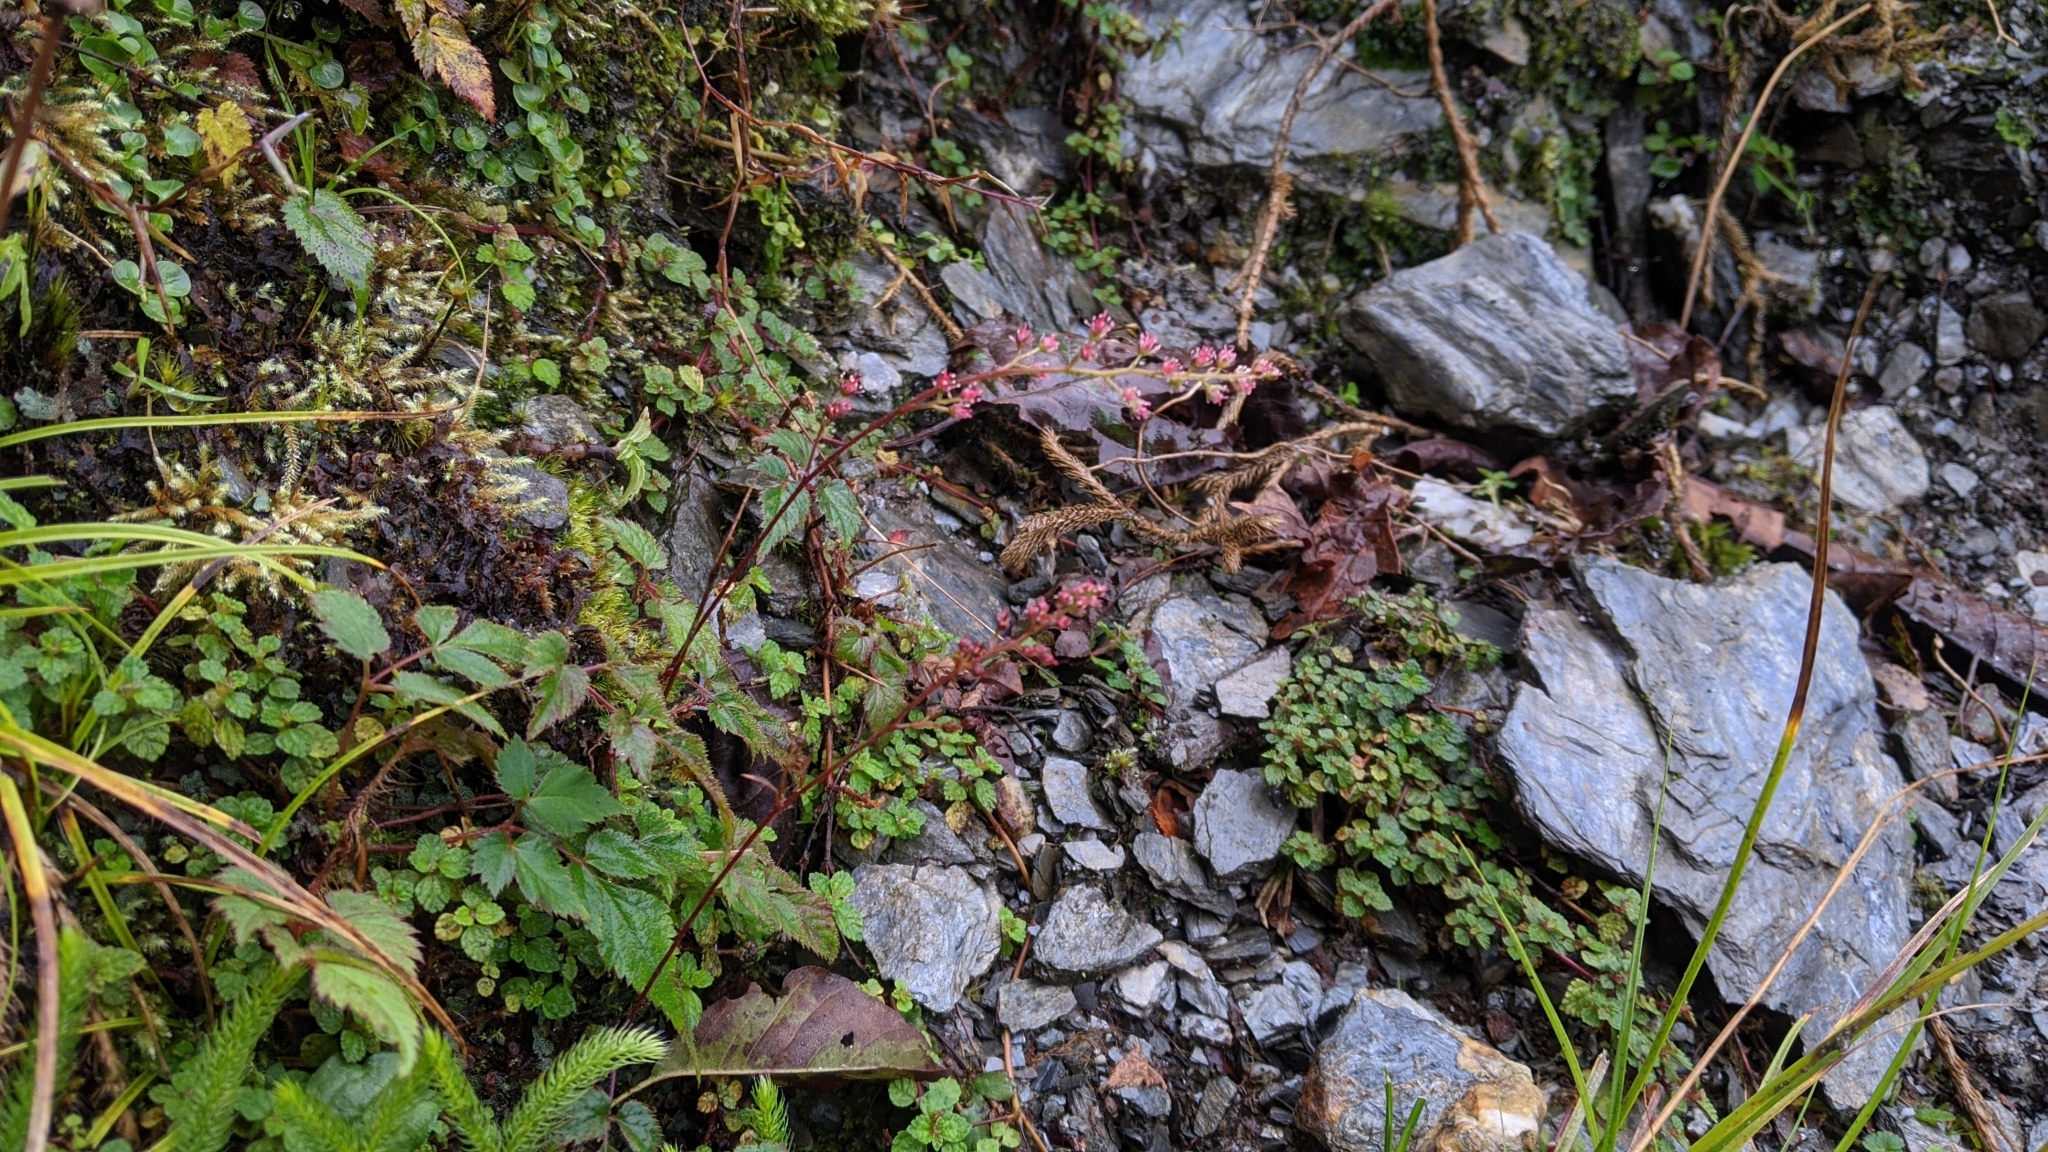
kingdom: Plantae
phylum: Tracheophyta
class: Magnoliopsida
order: Saxifragales
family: Saxifragaceae
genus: Astilbe
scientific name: Astilbe longicarpa
